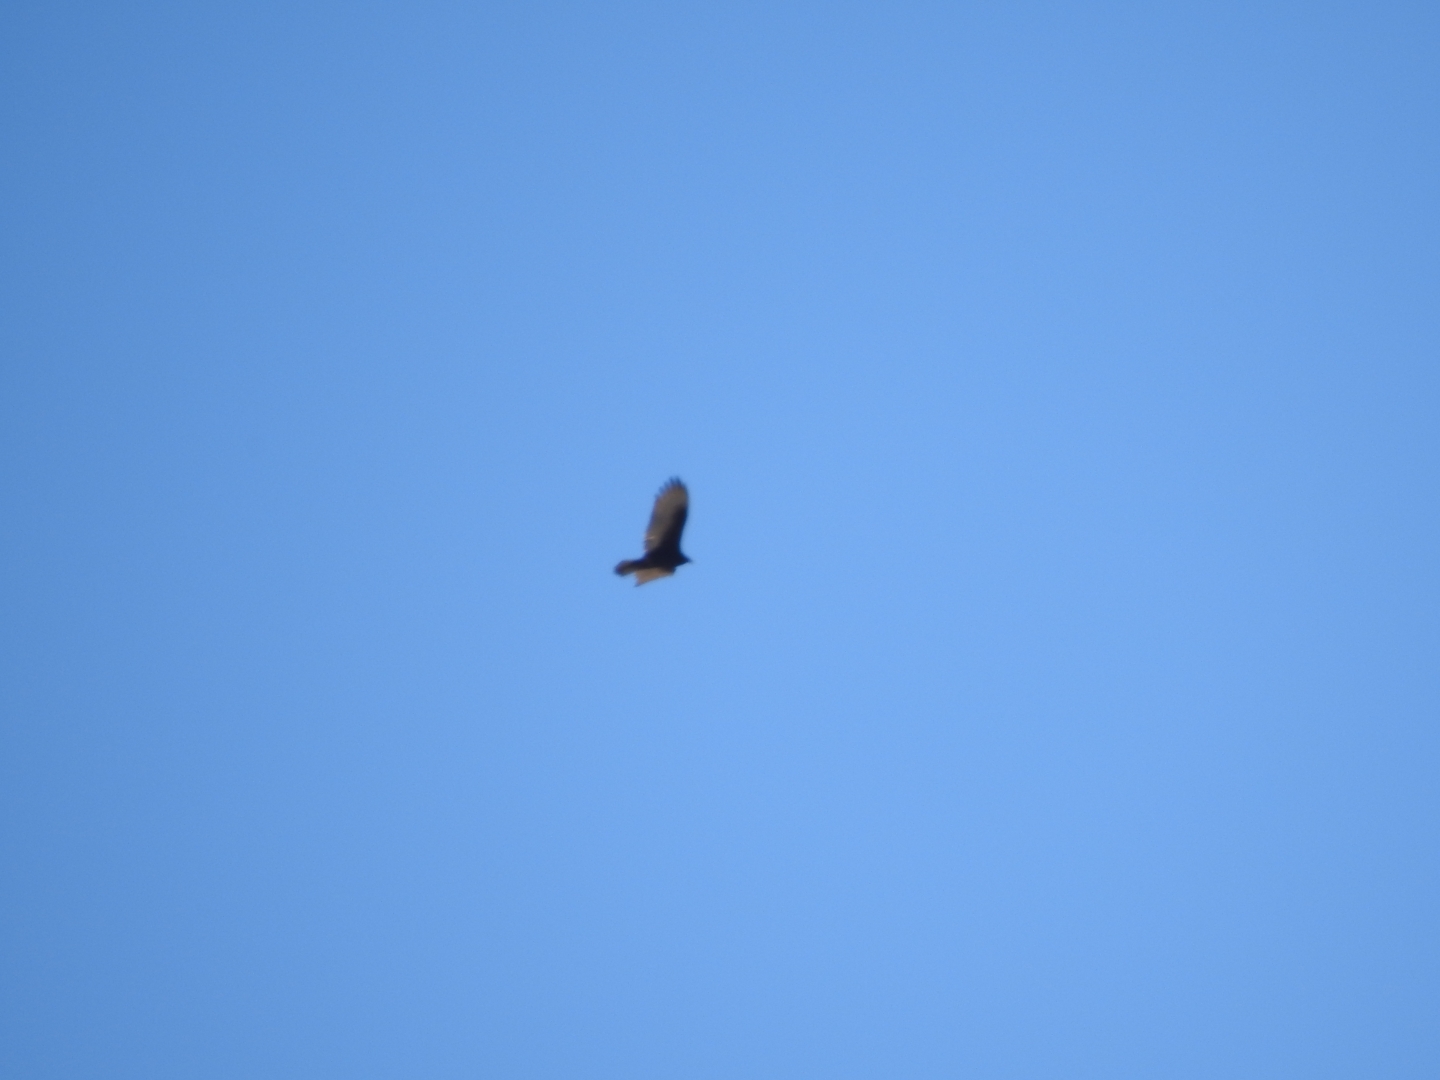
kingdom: Animalia
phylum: Chordata
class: Aves
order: Accipitriformes
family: Cathartidae
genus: Cathartes
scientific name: Cathartes aura
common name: Turkey vulture
